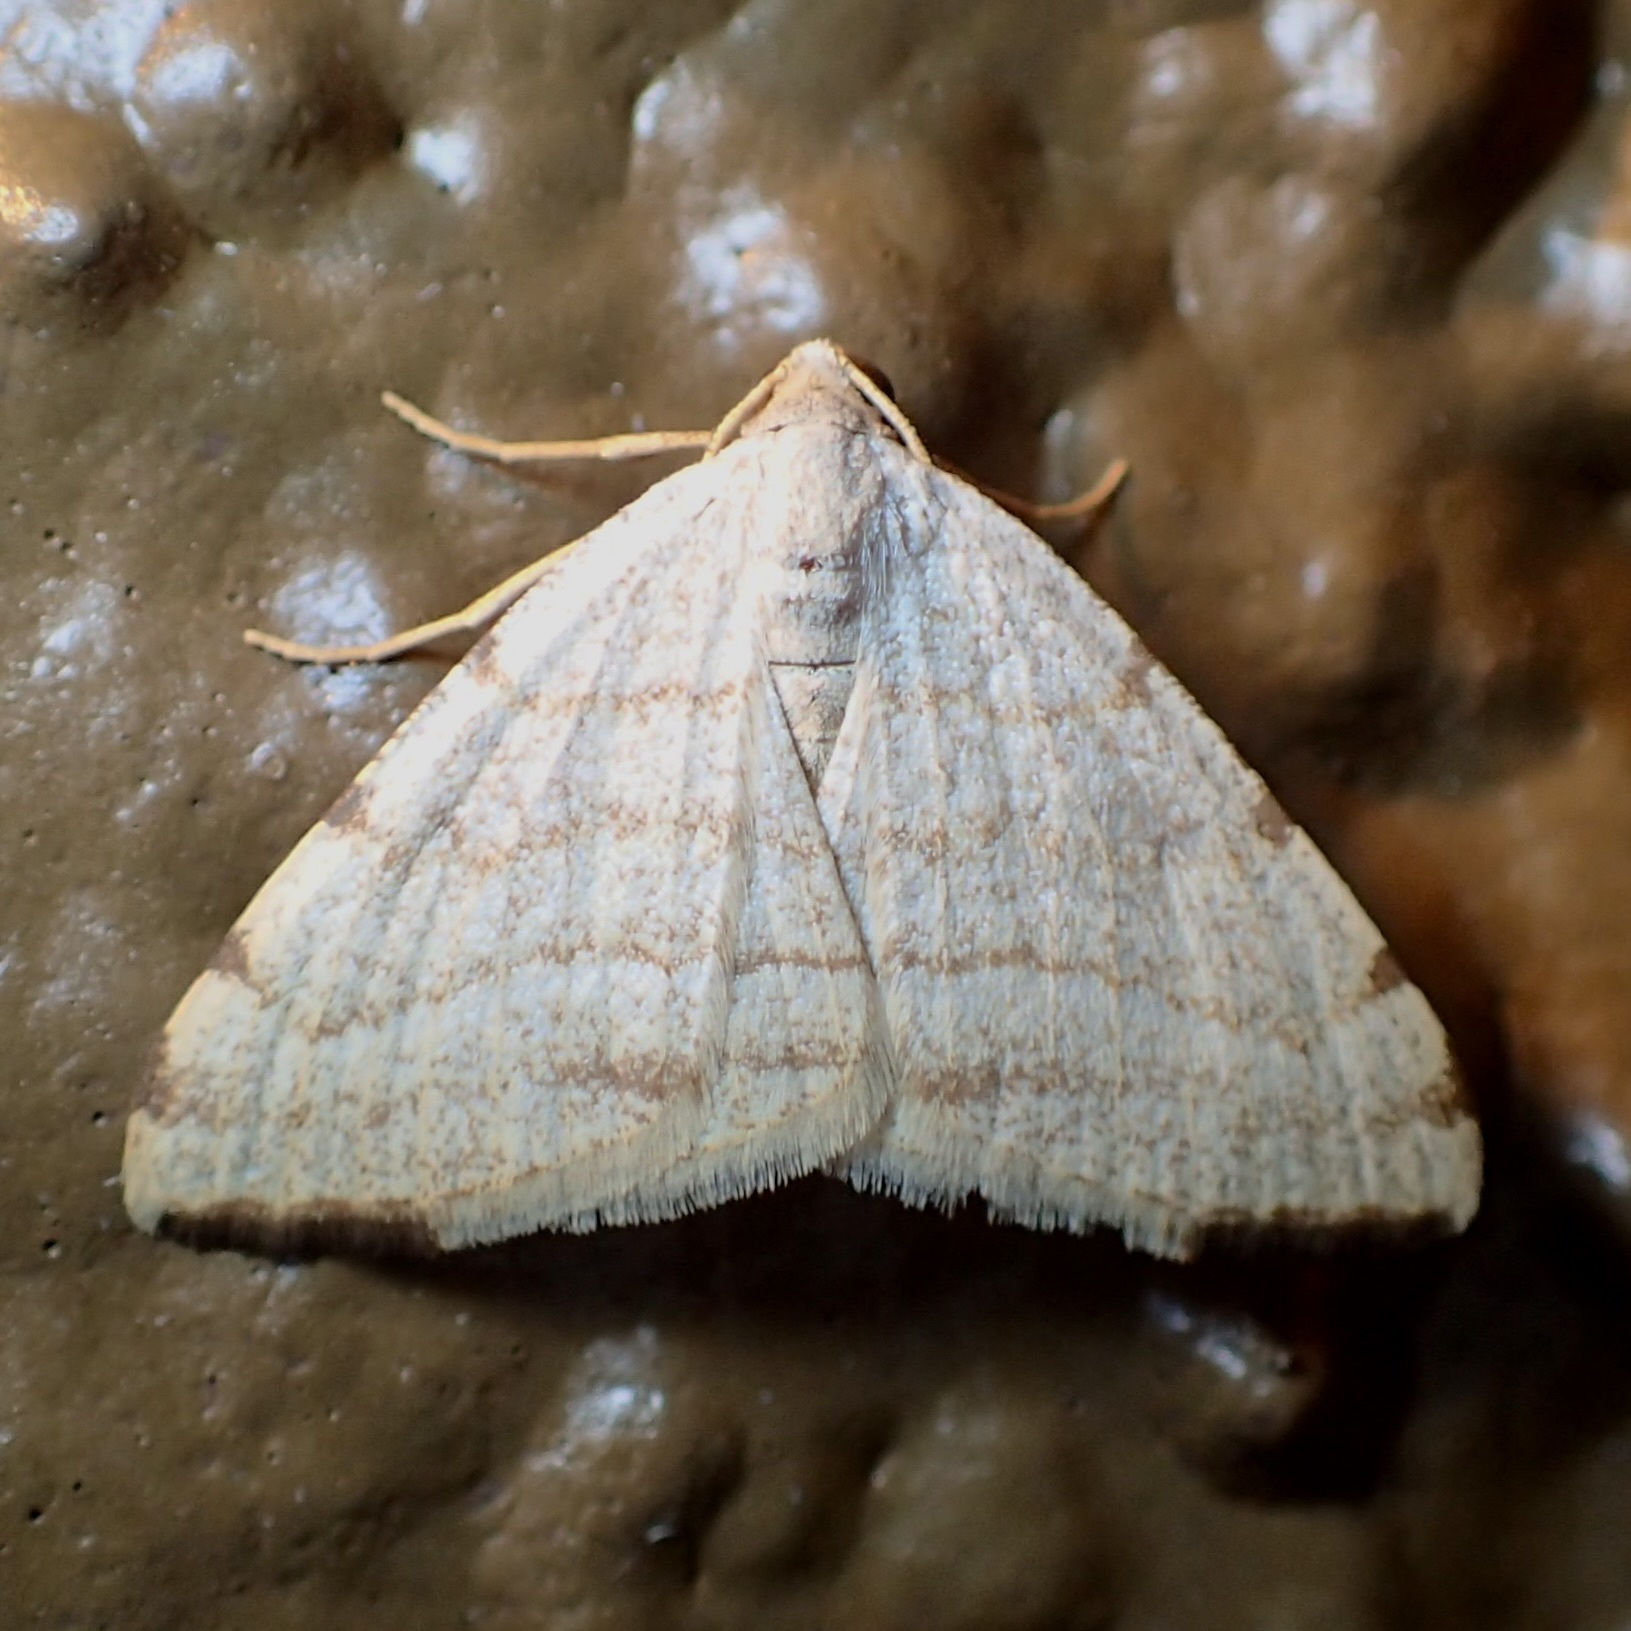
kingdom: Animalia
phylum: Arthropoda
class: Insecta
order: Lepidoptera
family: Geometridae
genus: Macaria
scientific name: Macaria octolineata
